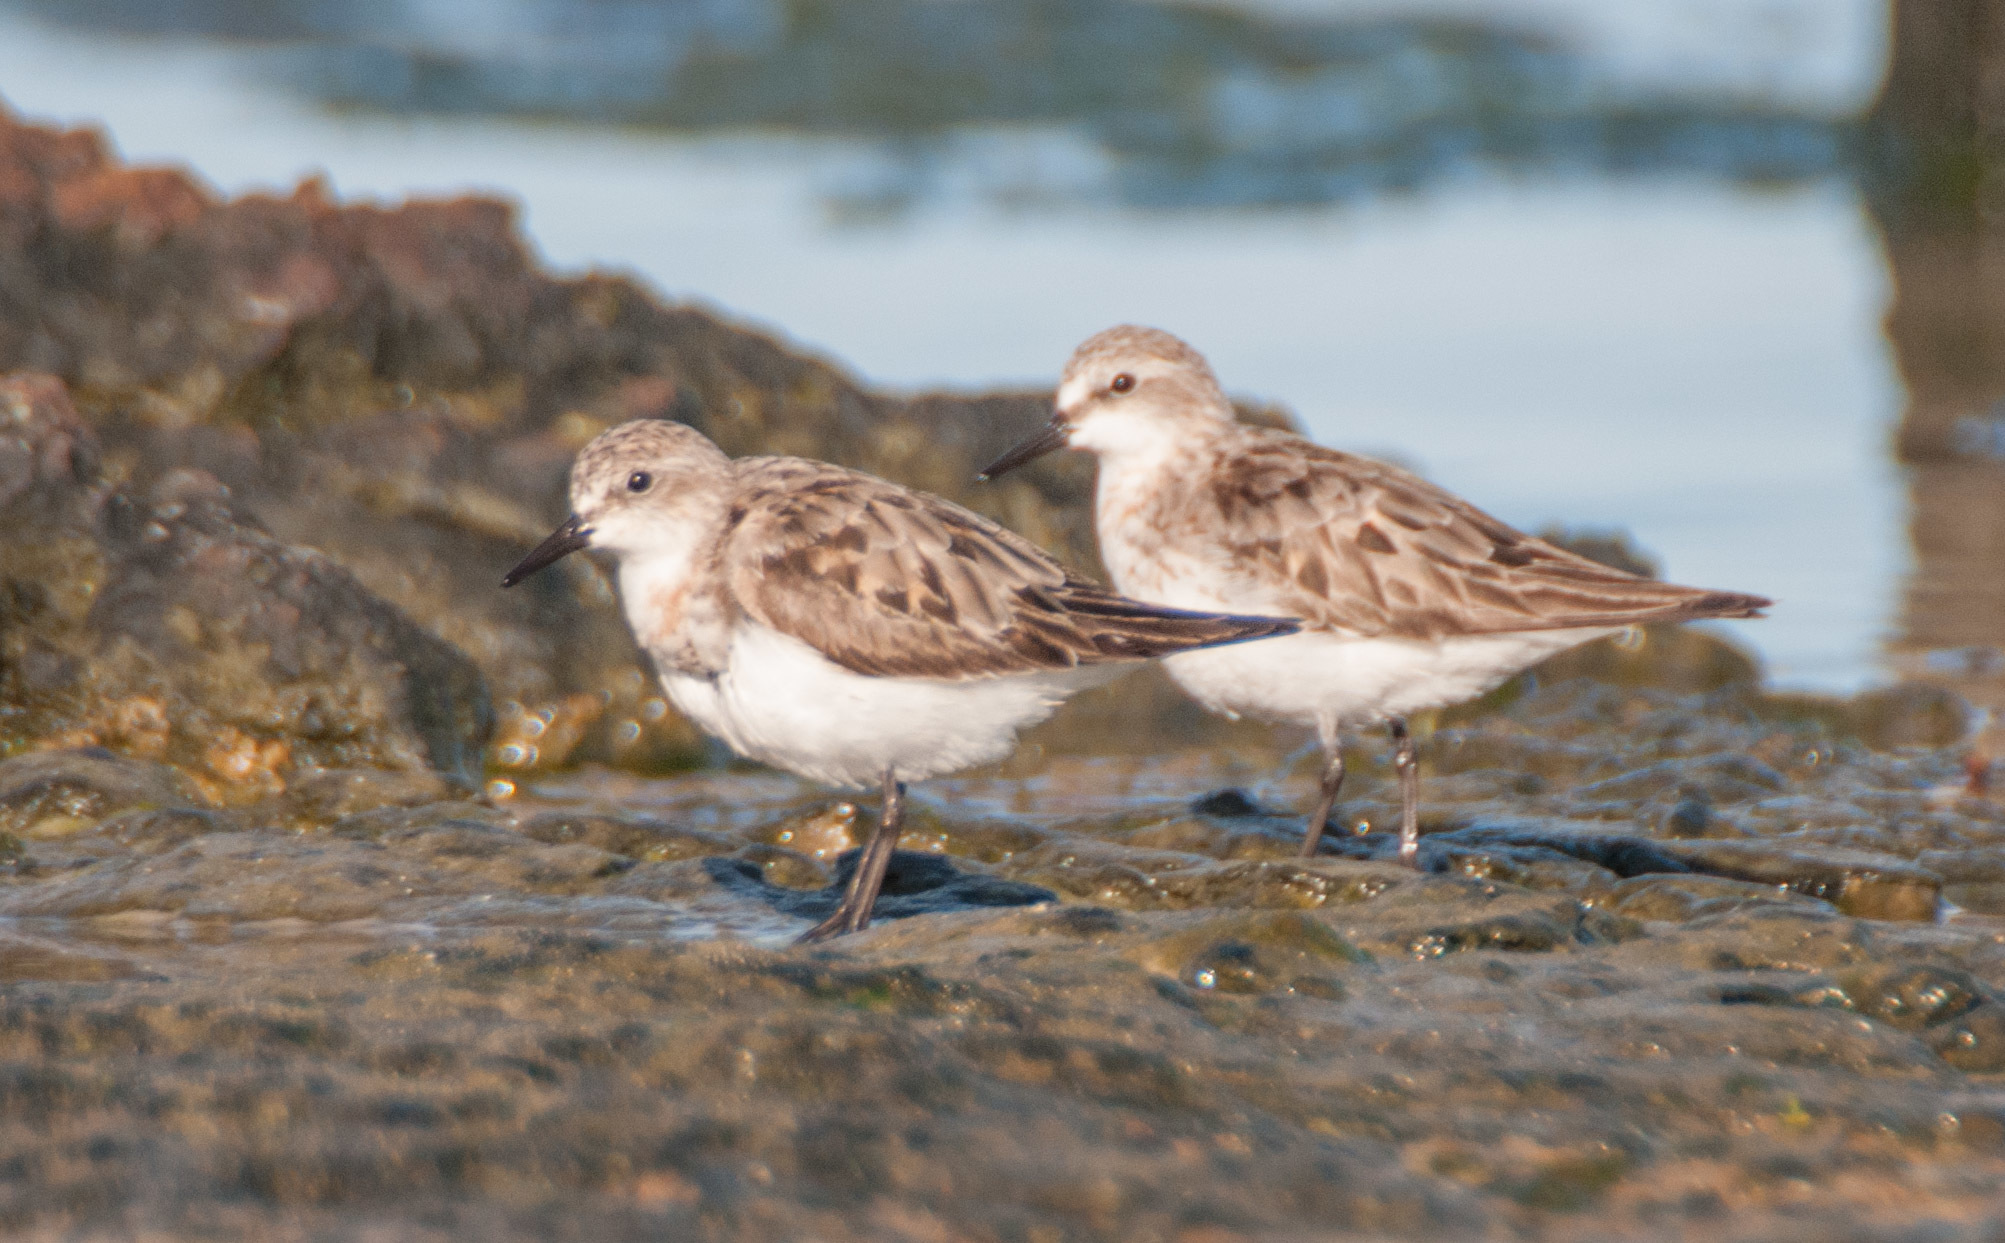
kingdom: Animalia
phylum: Chordata
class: Aves
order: Charadriiformes
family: Scolopacidae
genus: Calidris
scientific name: Calidris ruficollis
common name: Red-necked stint
